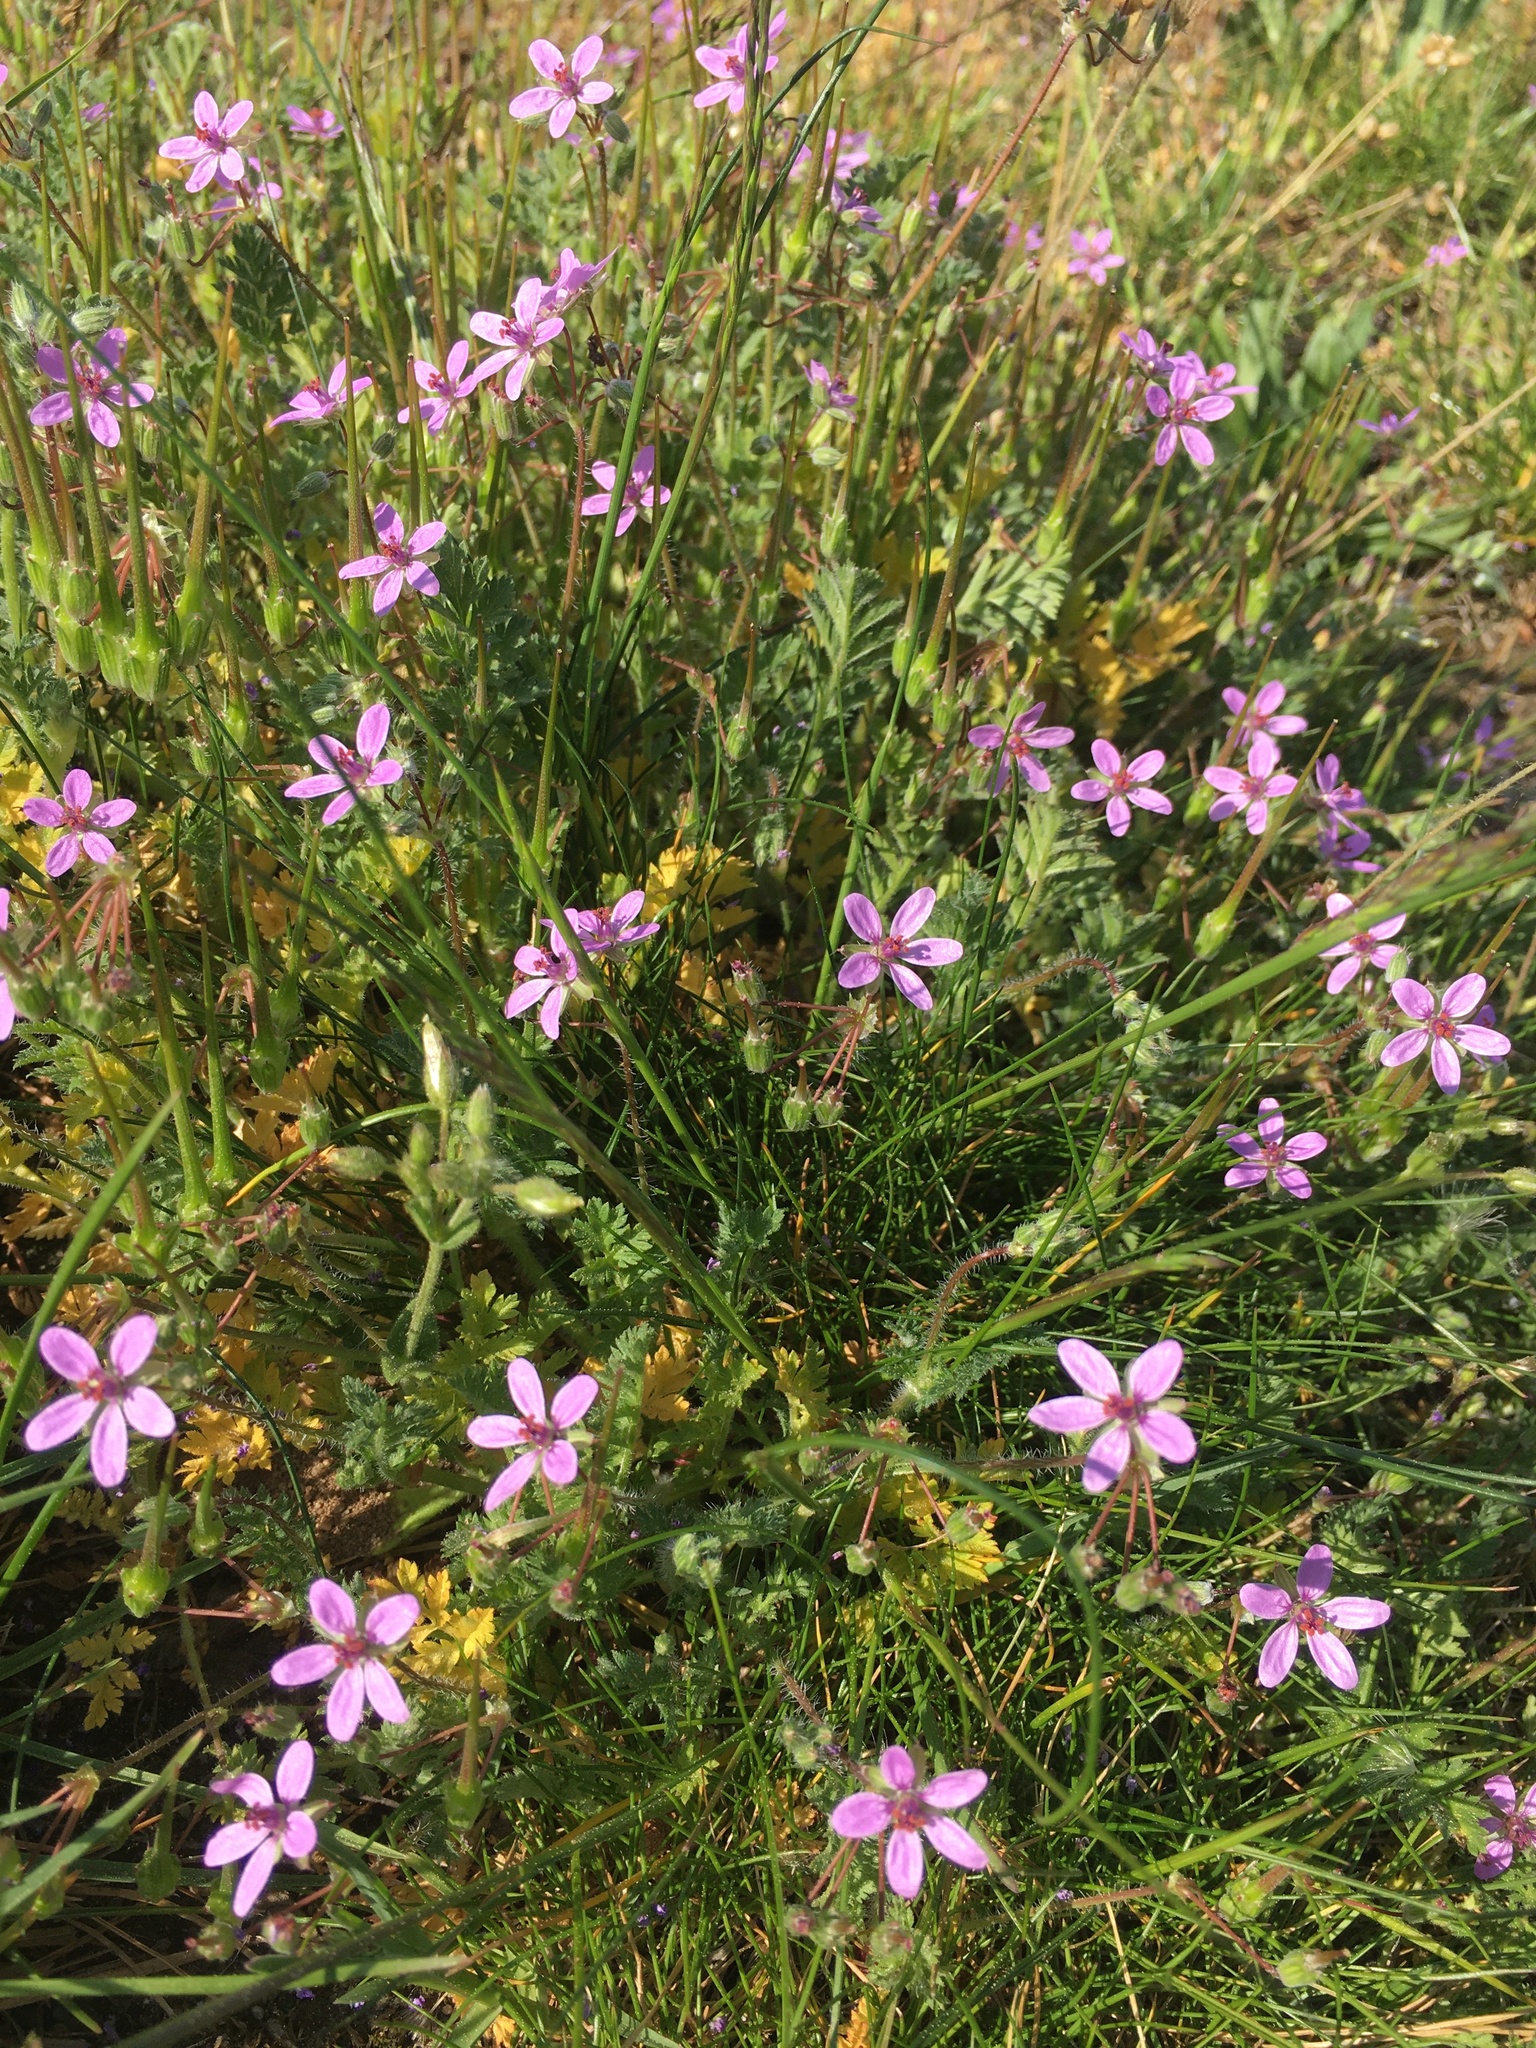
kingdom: Plantae
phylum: Tracheophyta
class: Magnoliopsida
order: Geraniales
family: Geraniaceae
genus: Erodium
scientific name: Erodium cicutarium
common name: Common stork's-bill
